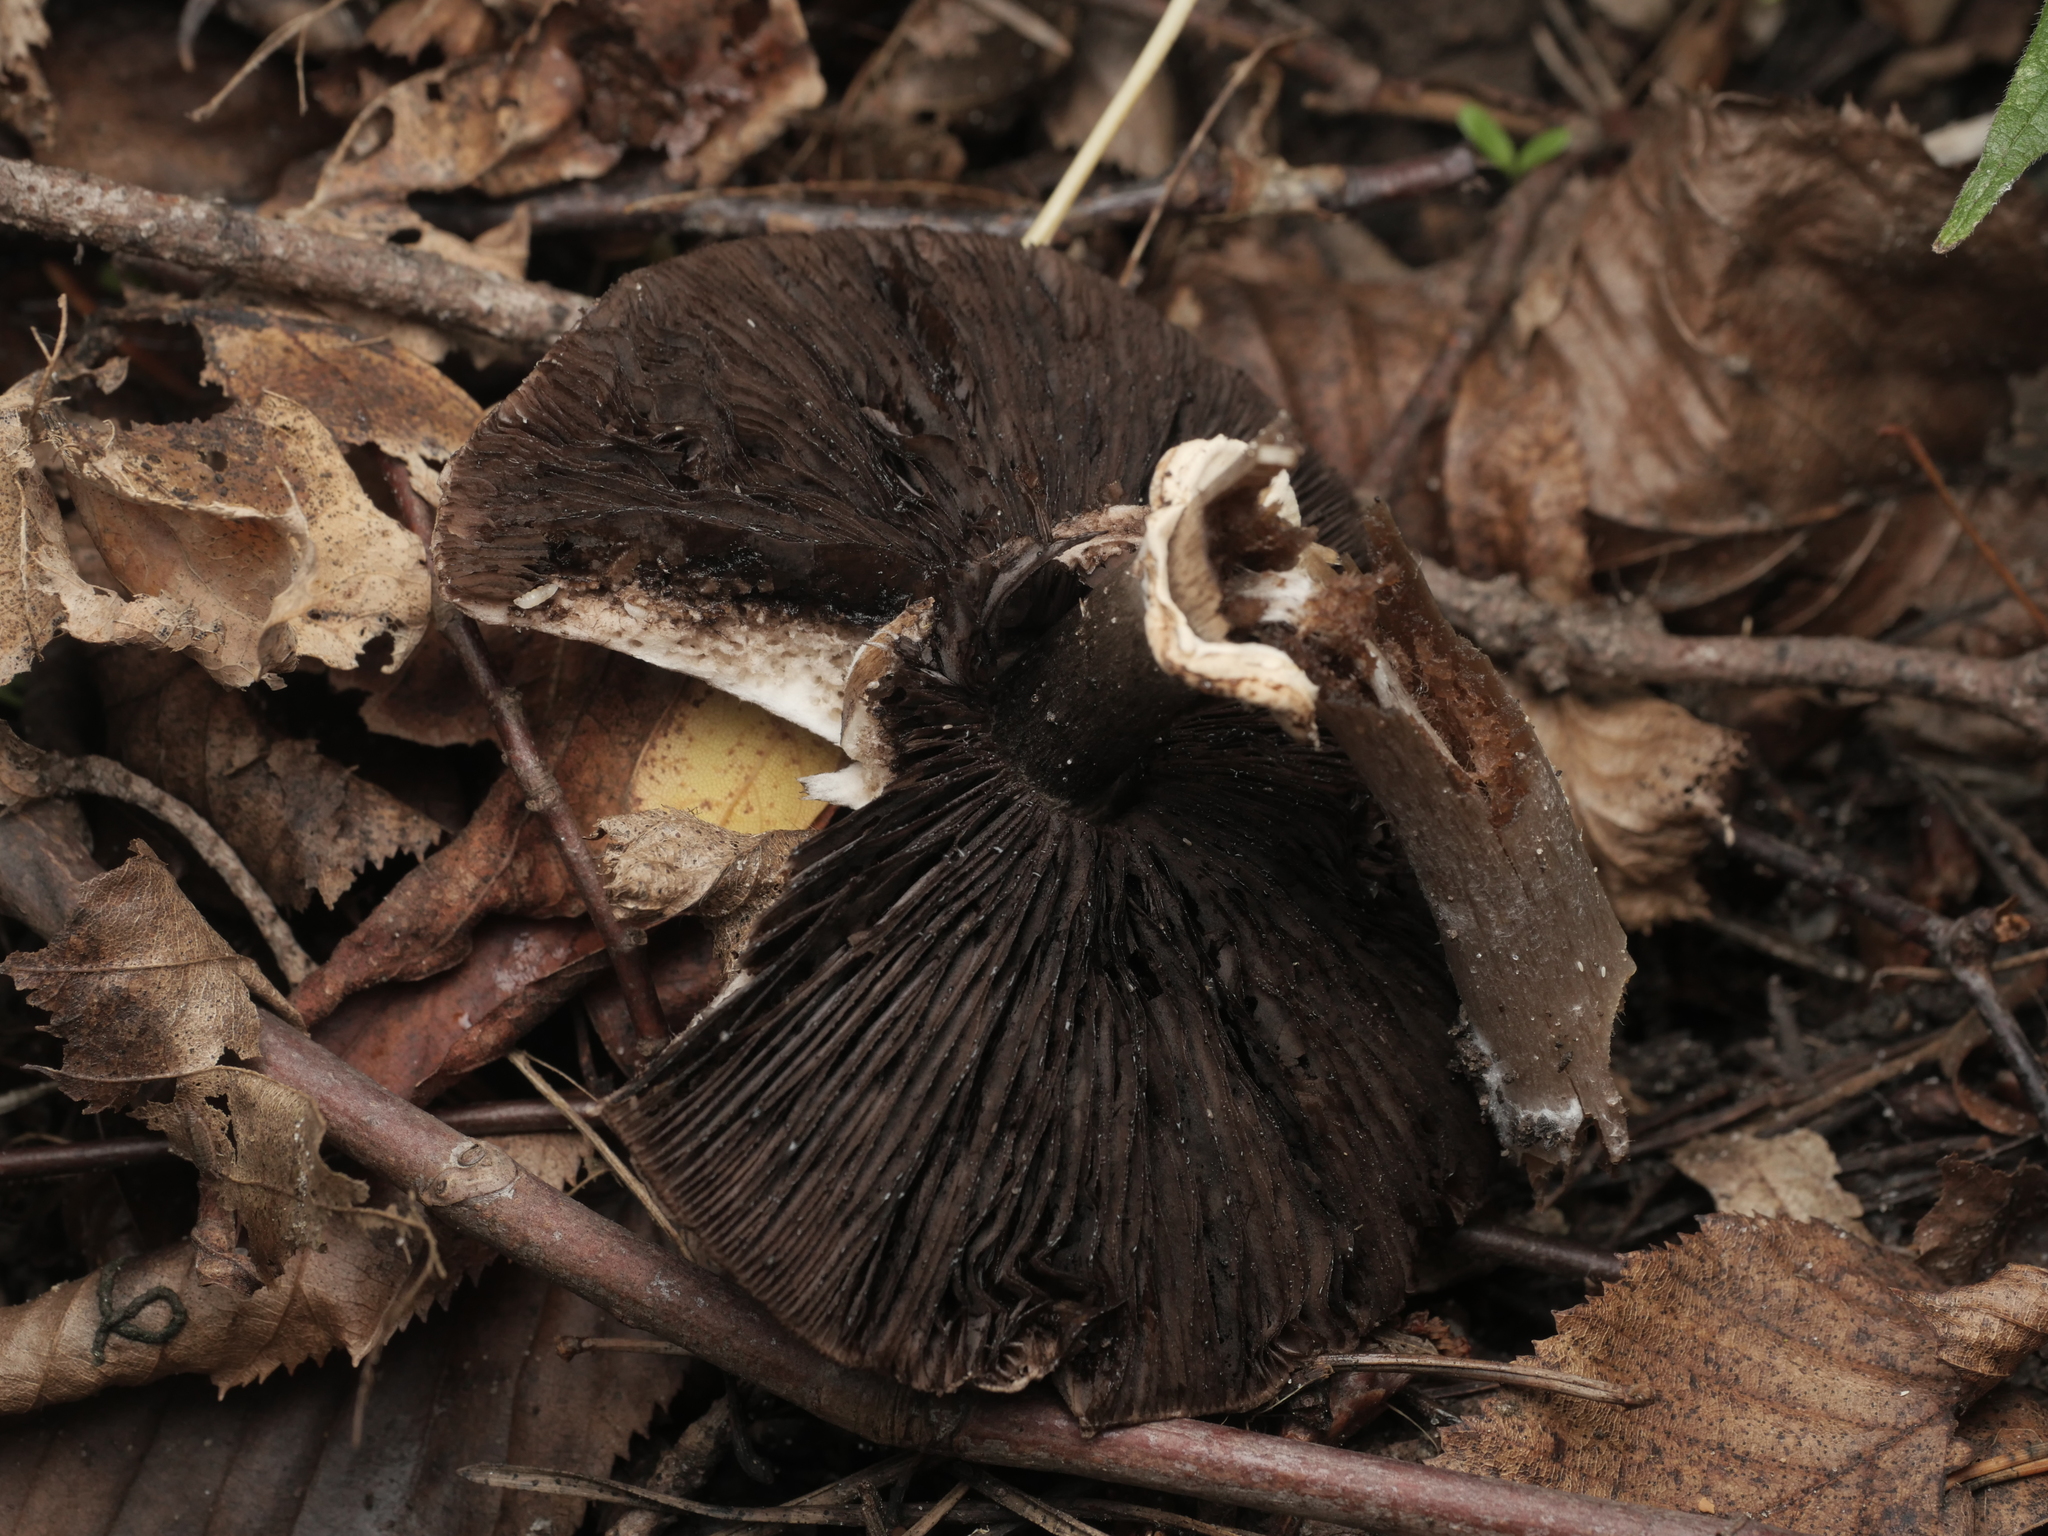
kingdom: Fungi
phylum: Basidiomycota
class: Agaricomycetes
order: Agaricales
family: Agaricaceae
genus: Agaricus
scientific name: Agaricus sylvaticus
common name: Blushing wood mushroom
